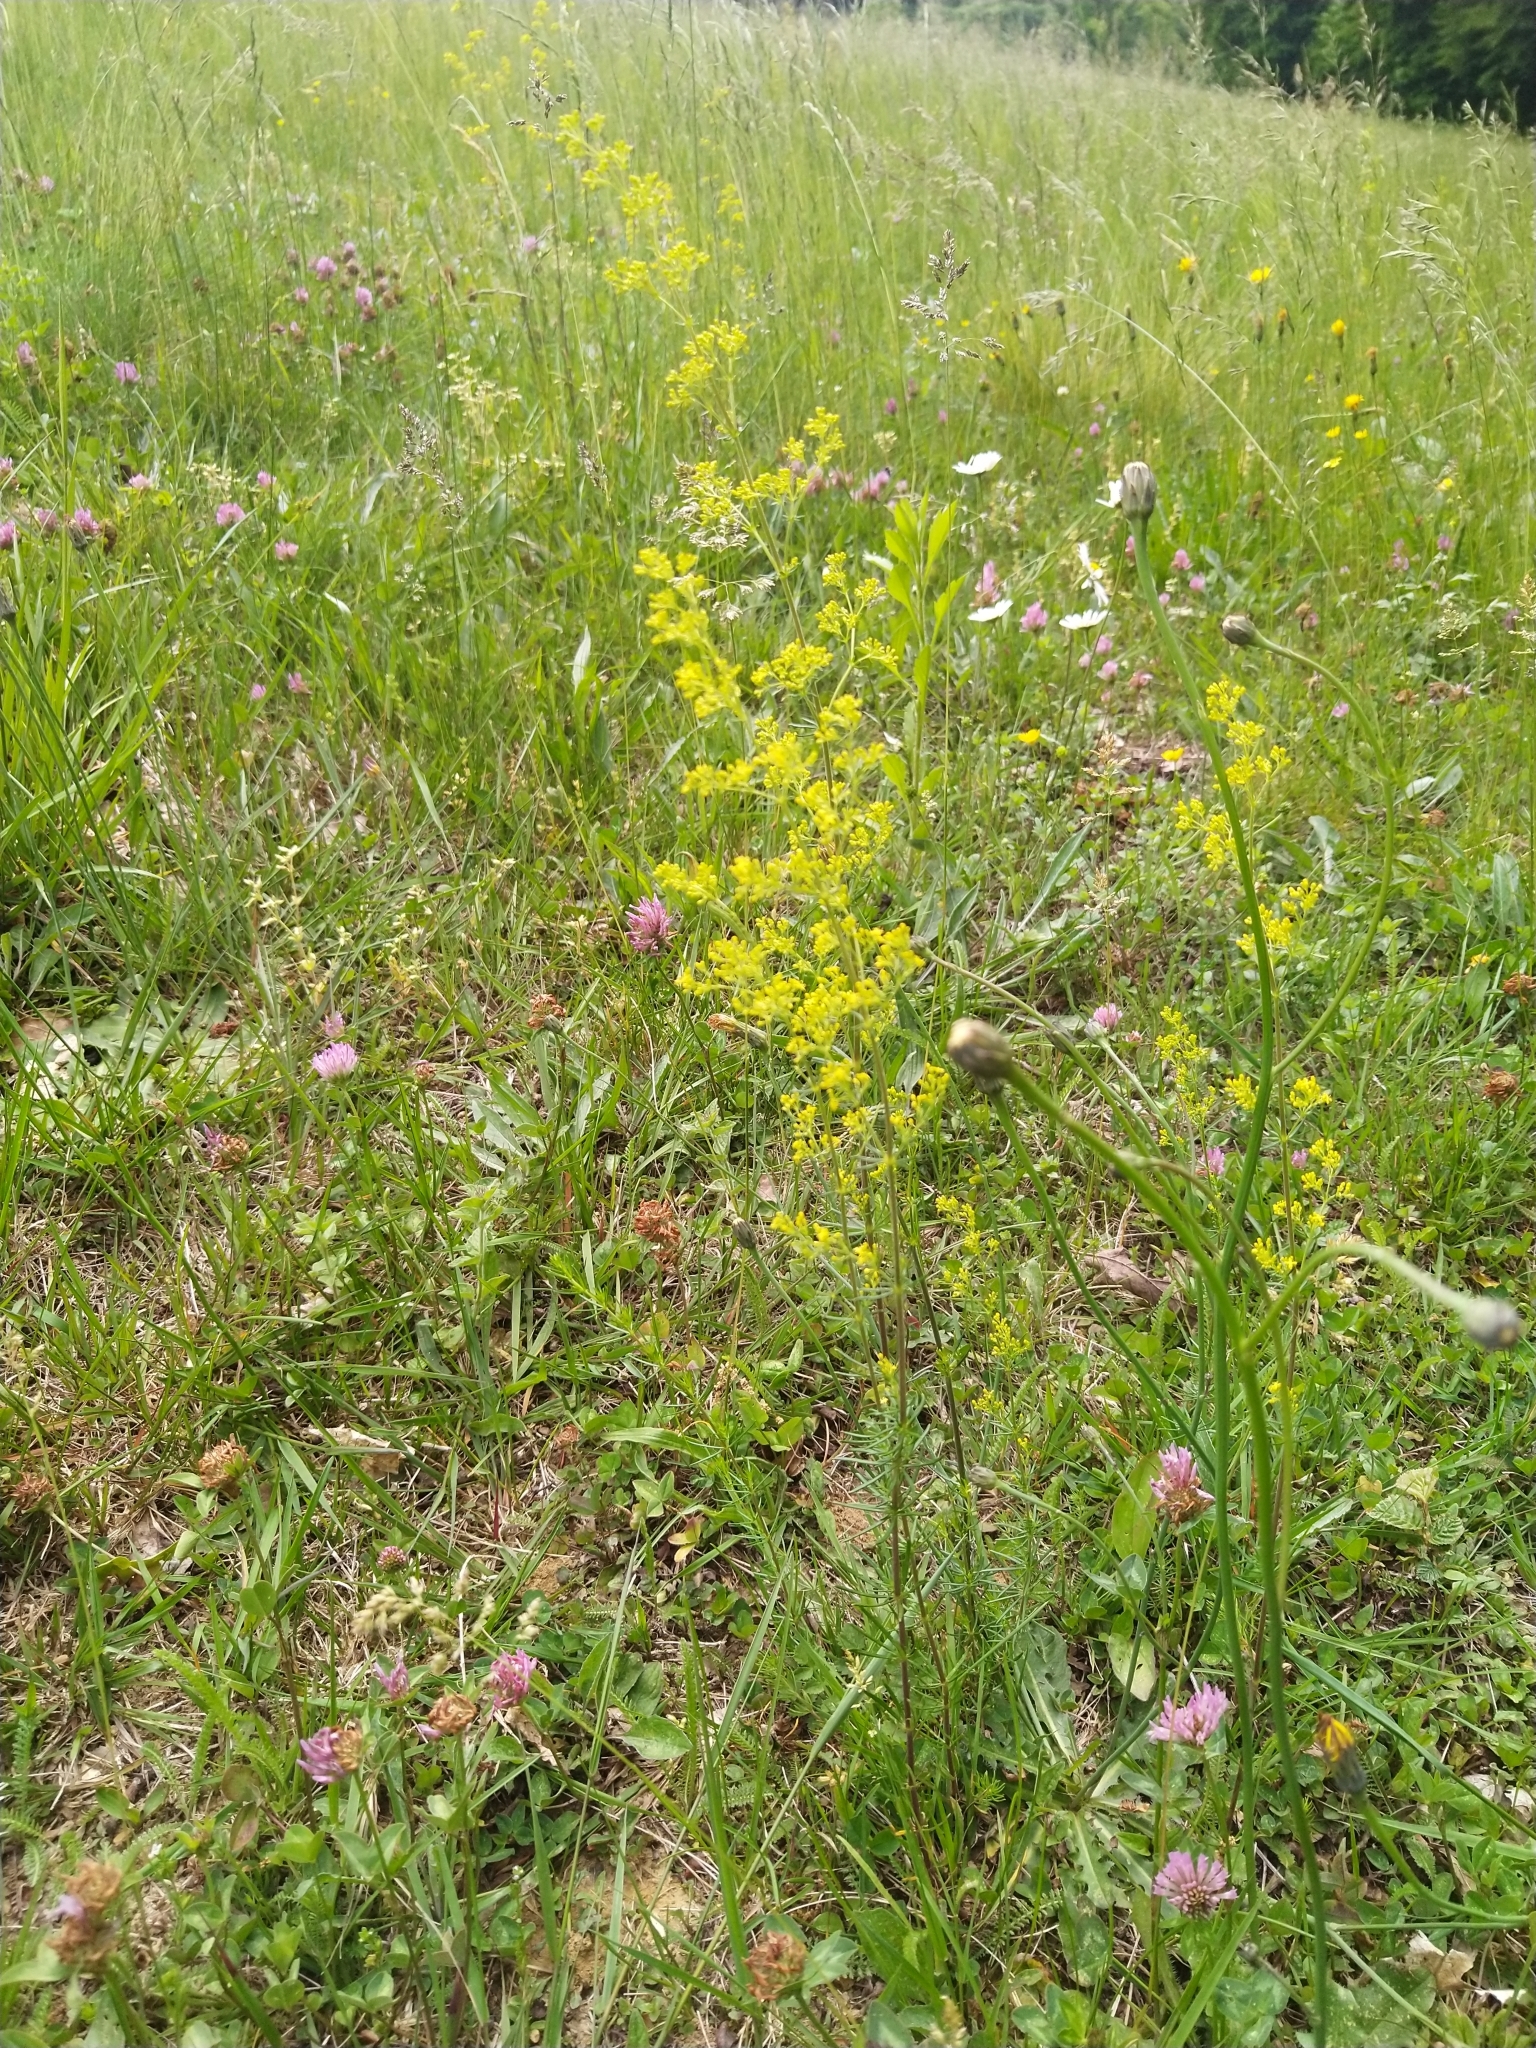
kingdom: Plantae
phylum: Tracheophyta
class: Magnoliopsida
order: Gentianales
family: Rubiaceae
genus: Galium
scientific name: Galium verum
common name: Lady's bedstraw
